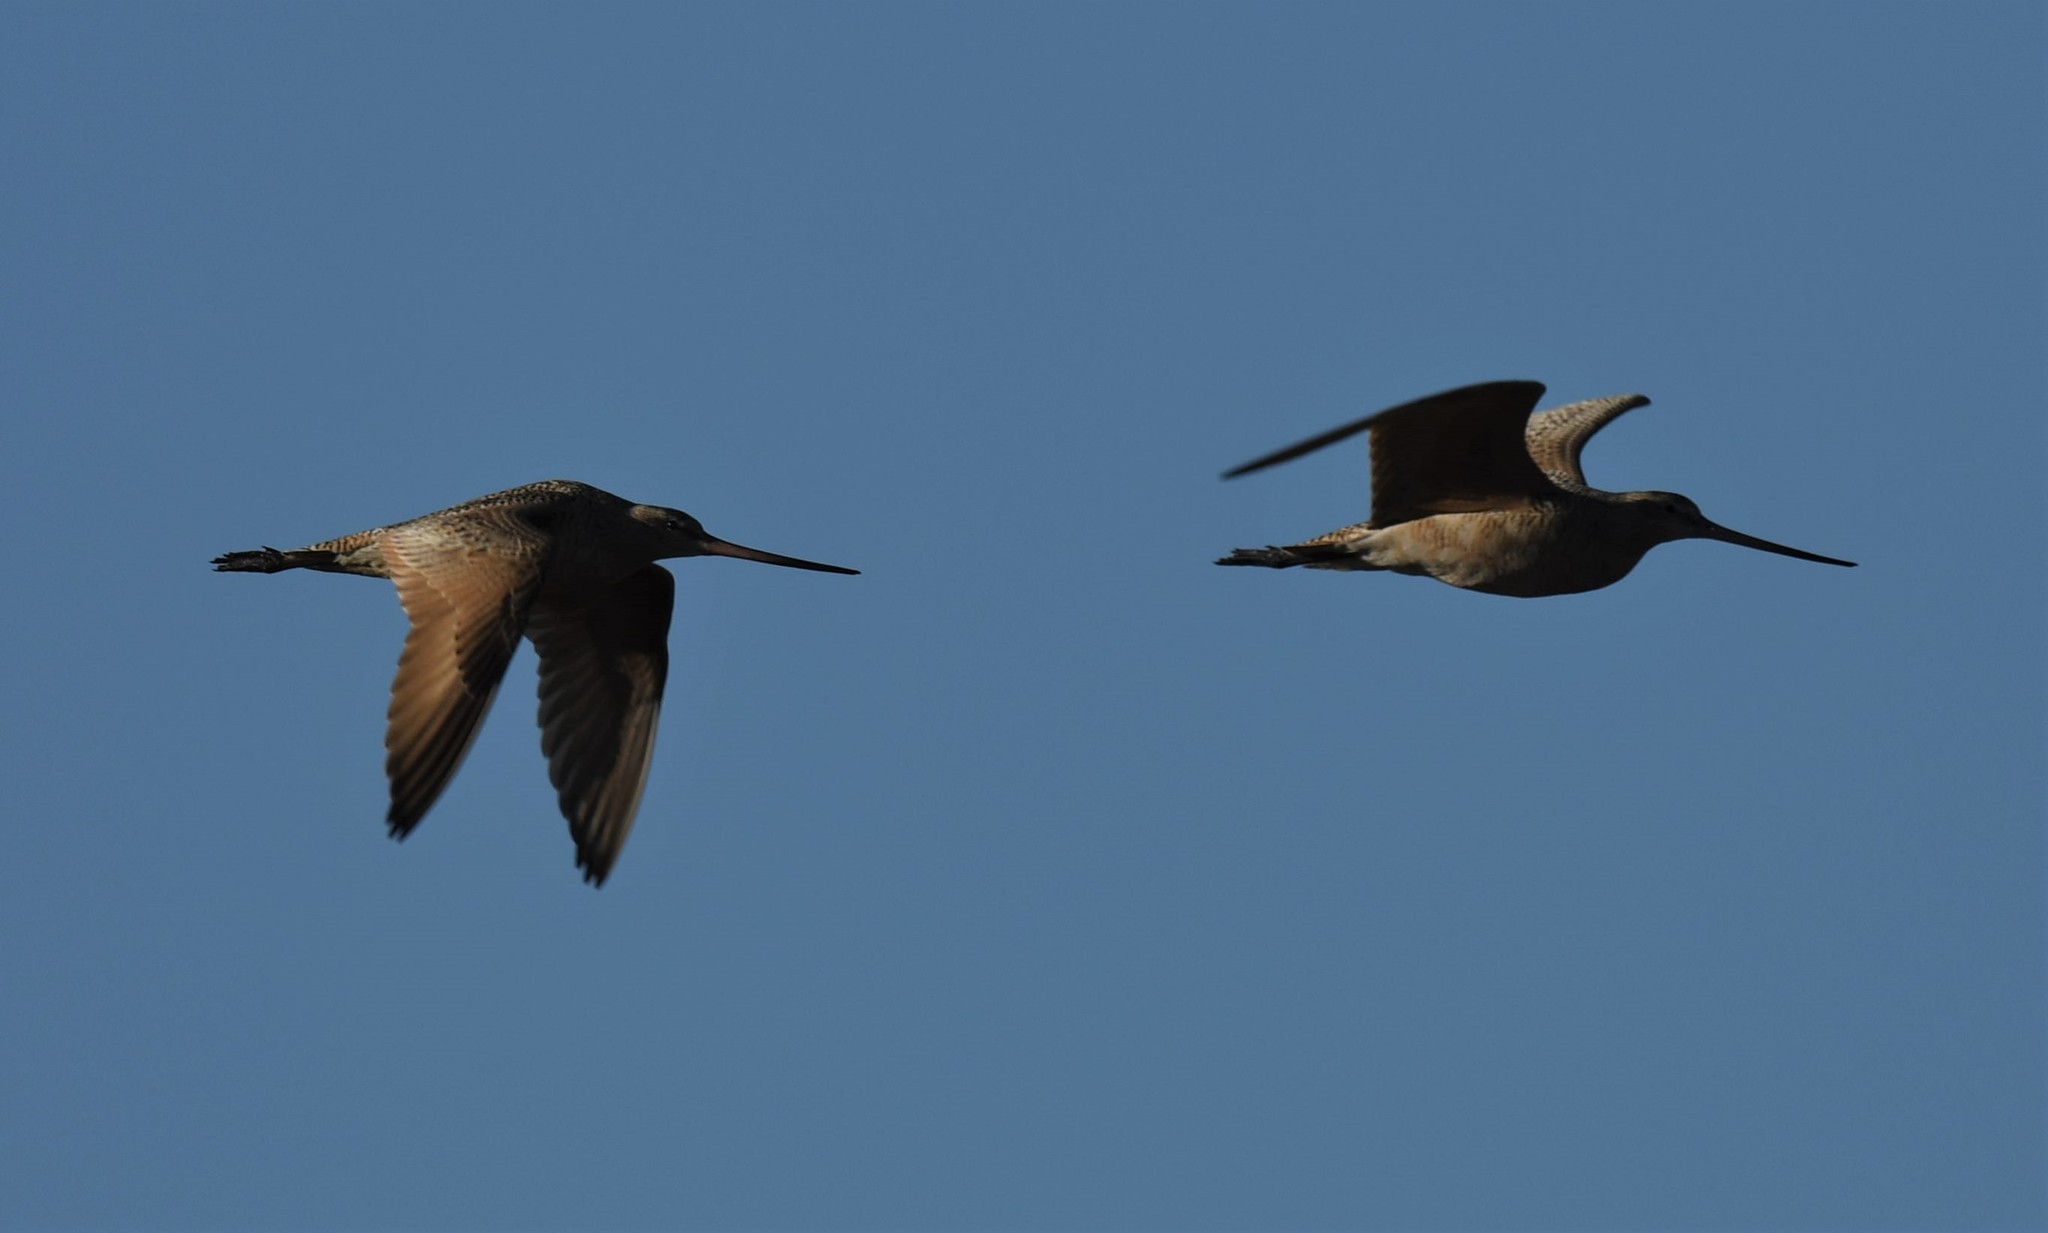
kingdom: Animalia
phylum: Chordata
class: Aves
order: Charadriiformes
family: Scolopacidae
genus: Limosa
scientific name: Limosa fedoa
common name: Marbled godwit
